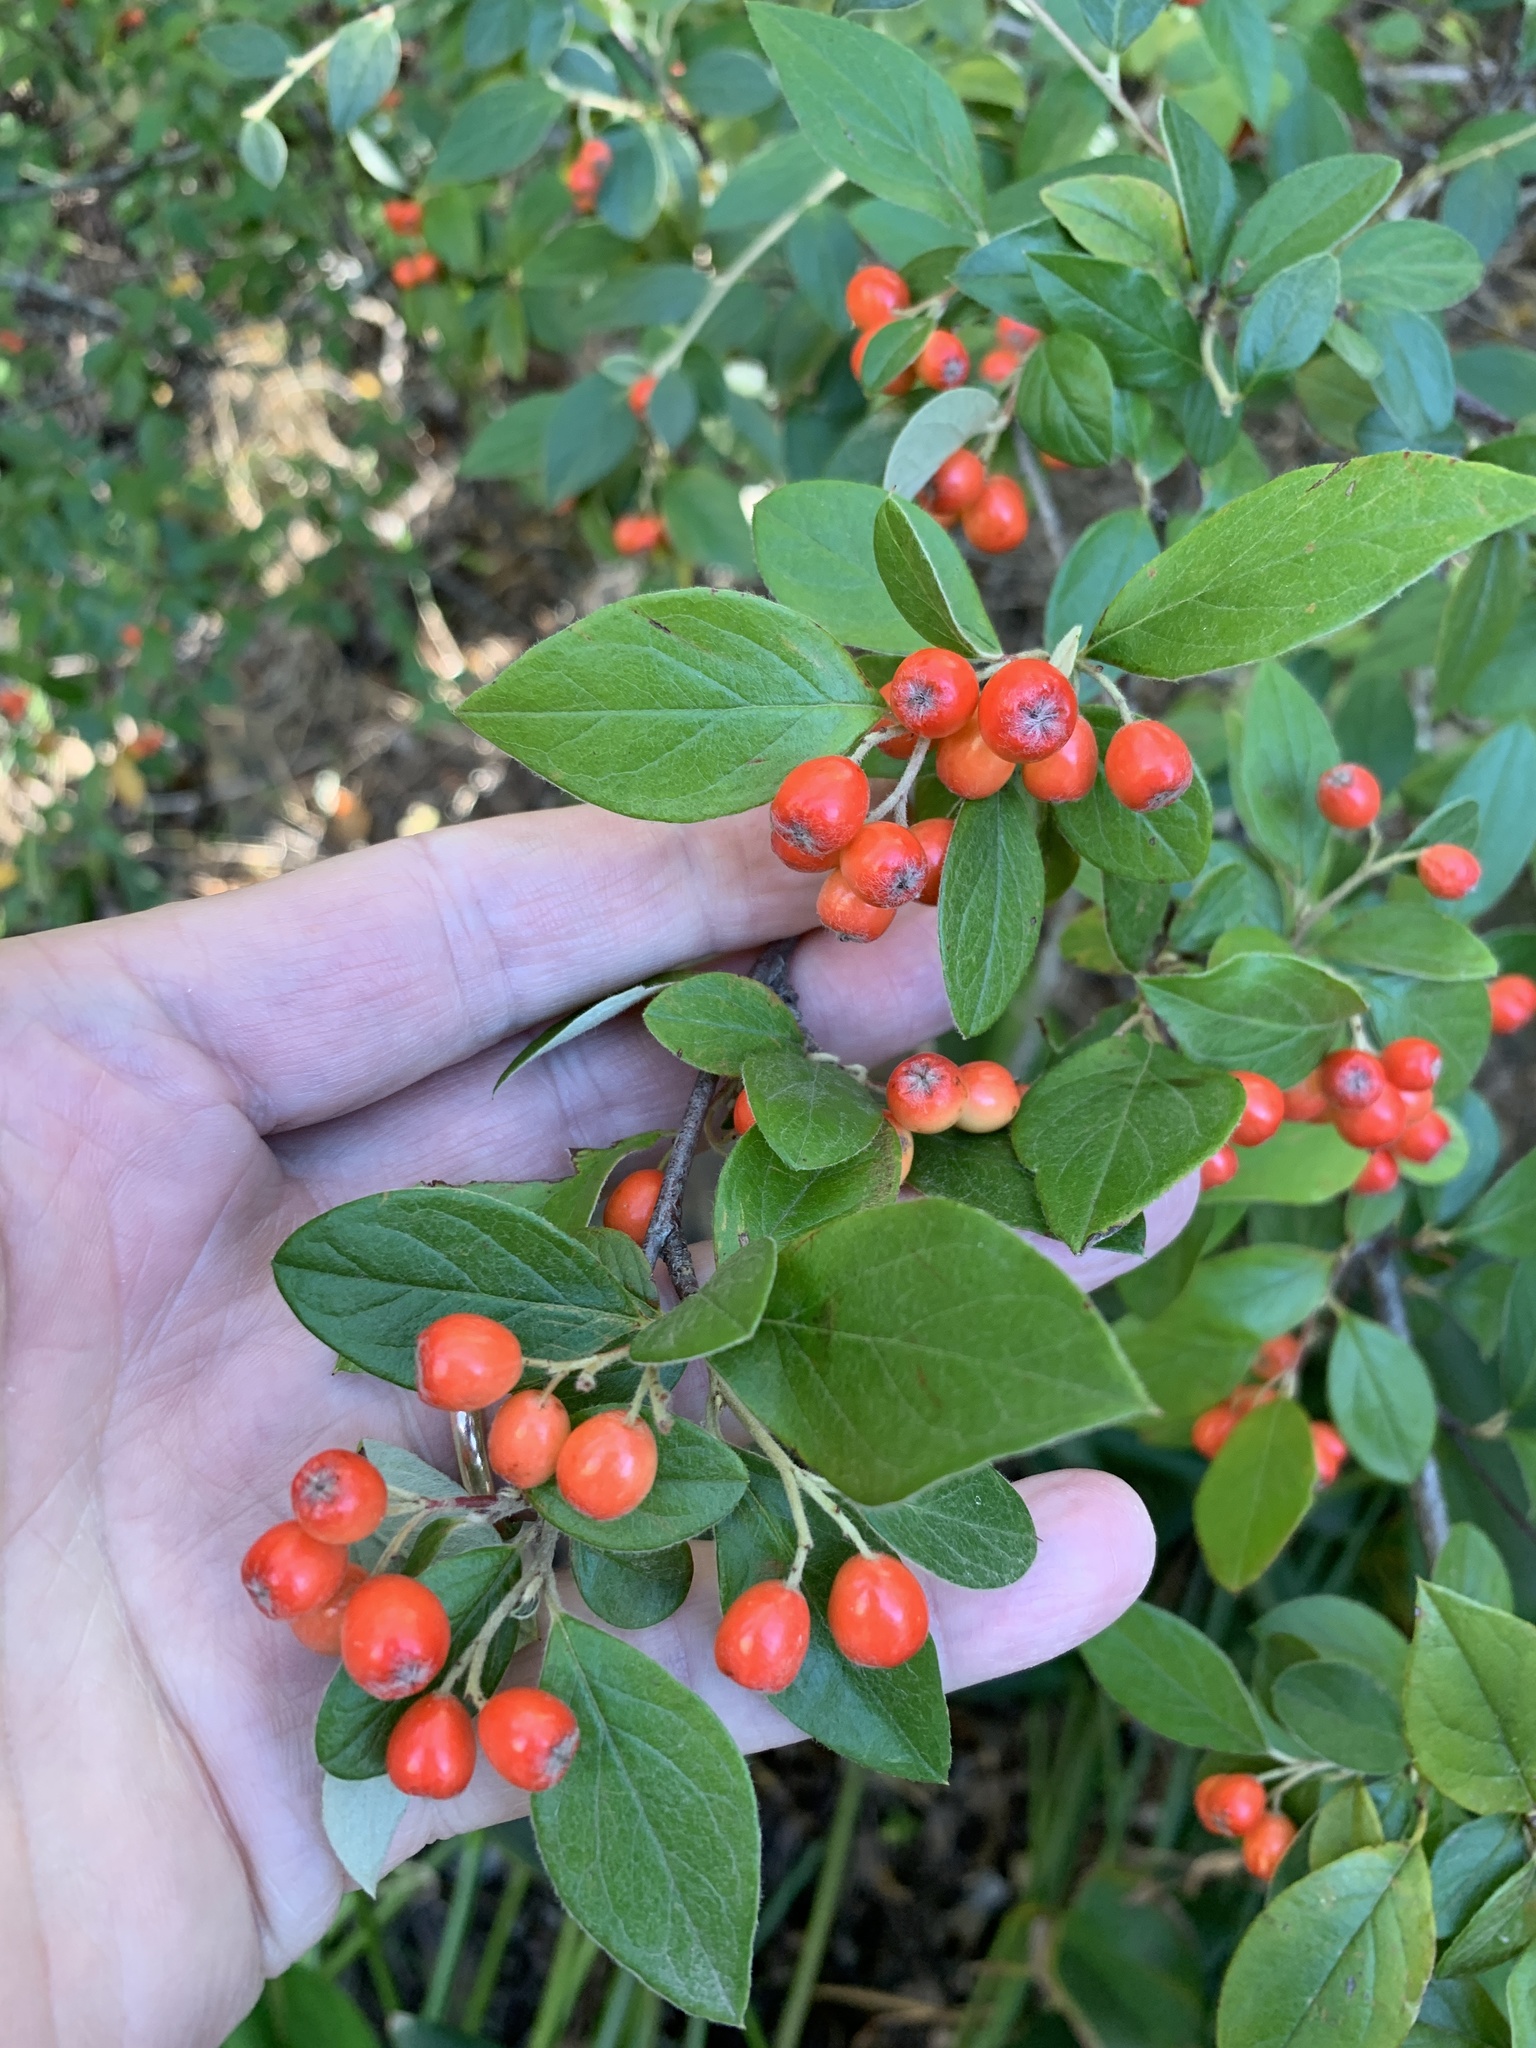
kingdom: Plantae
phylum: Tracheophyta
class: Magnoliopsida
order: Rosales
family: Rosaceae
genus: Cotoneaster
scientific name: Cotoneaster glaucophyllus
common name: Glaucous cotoneaster
